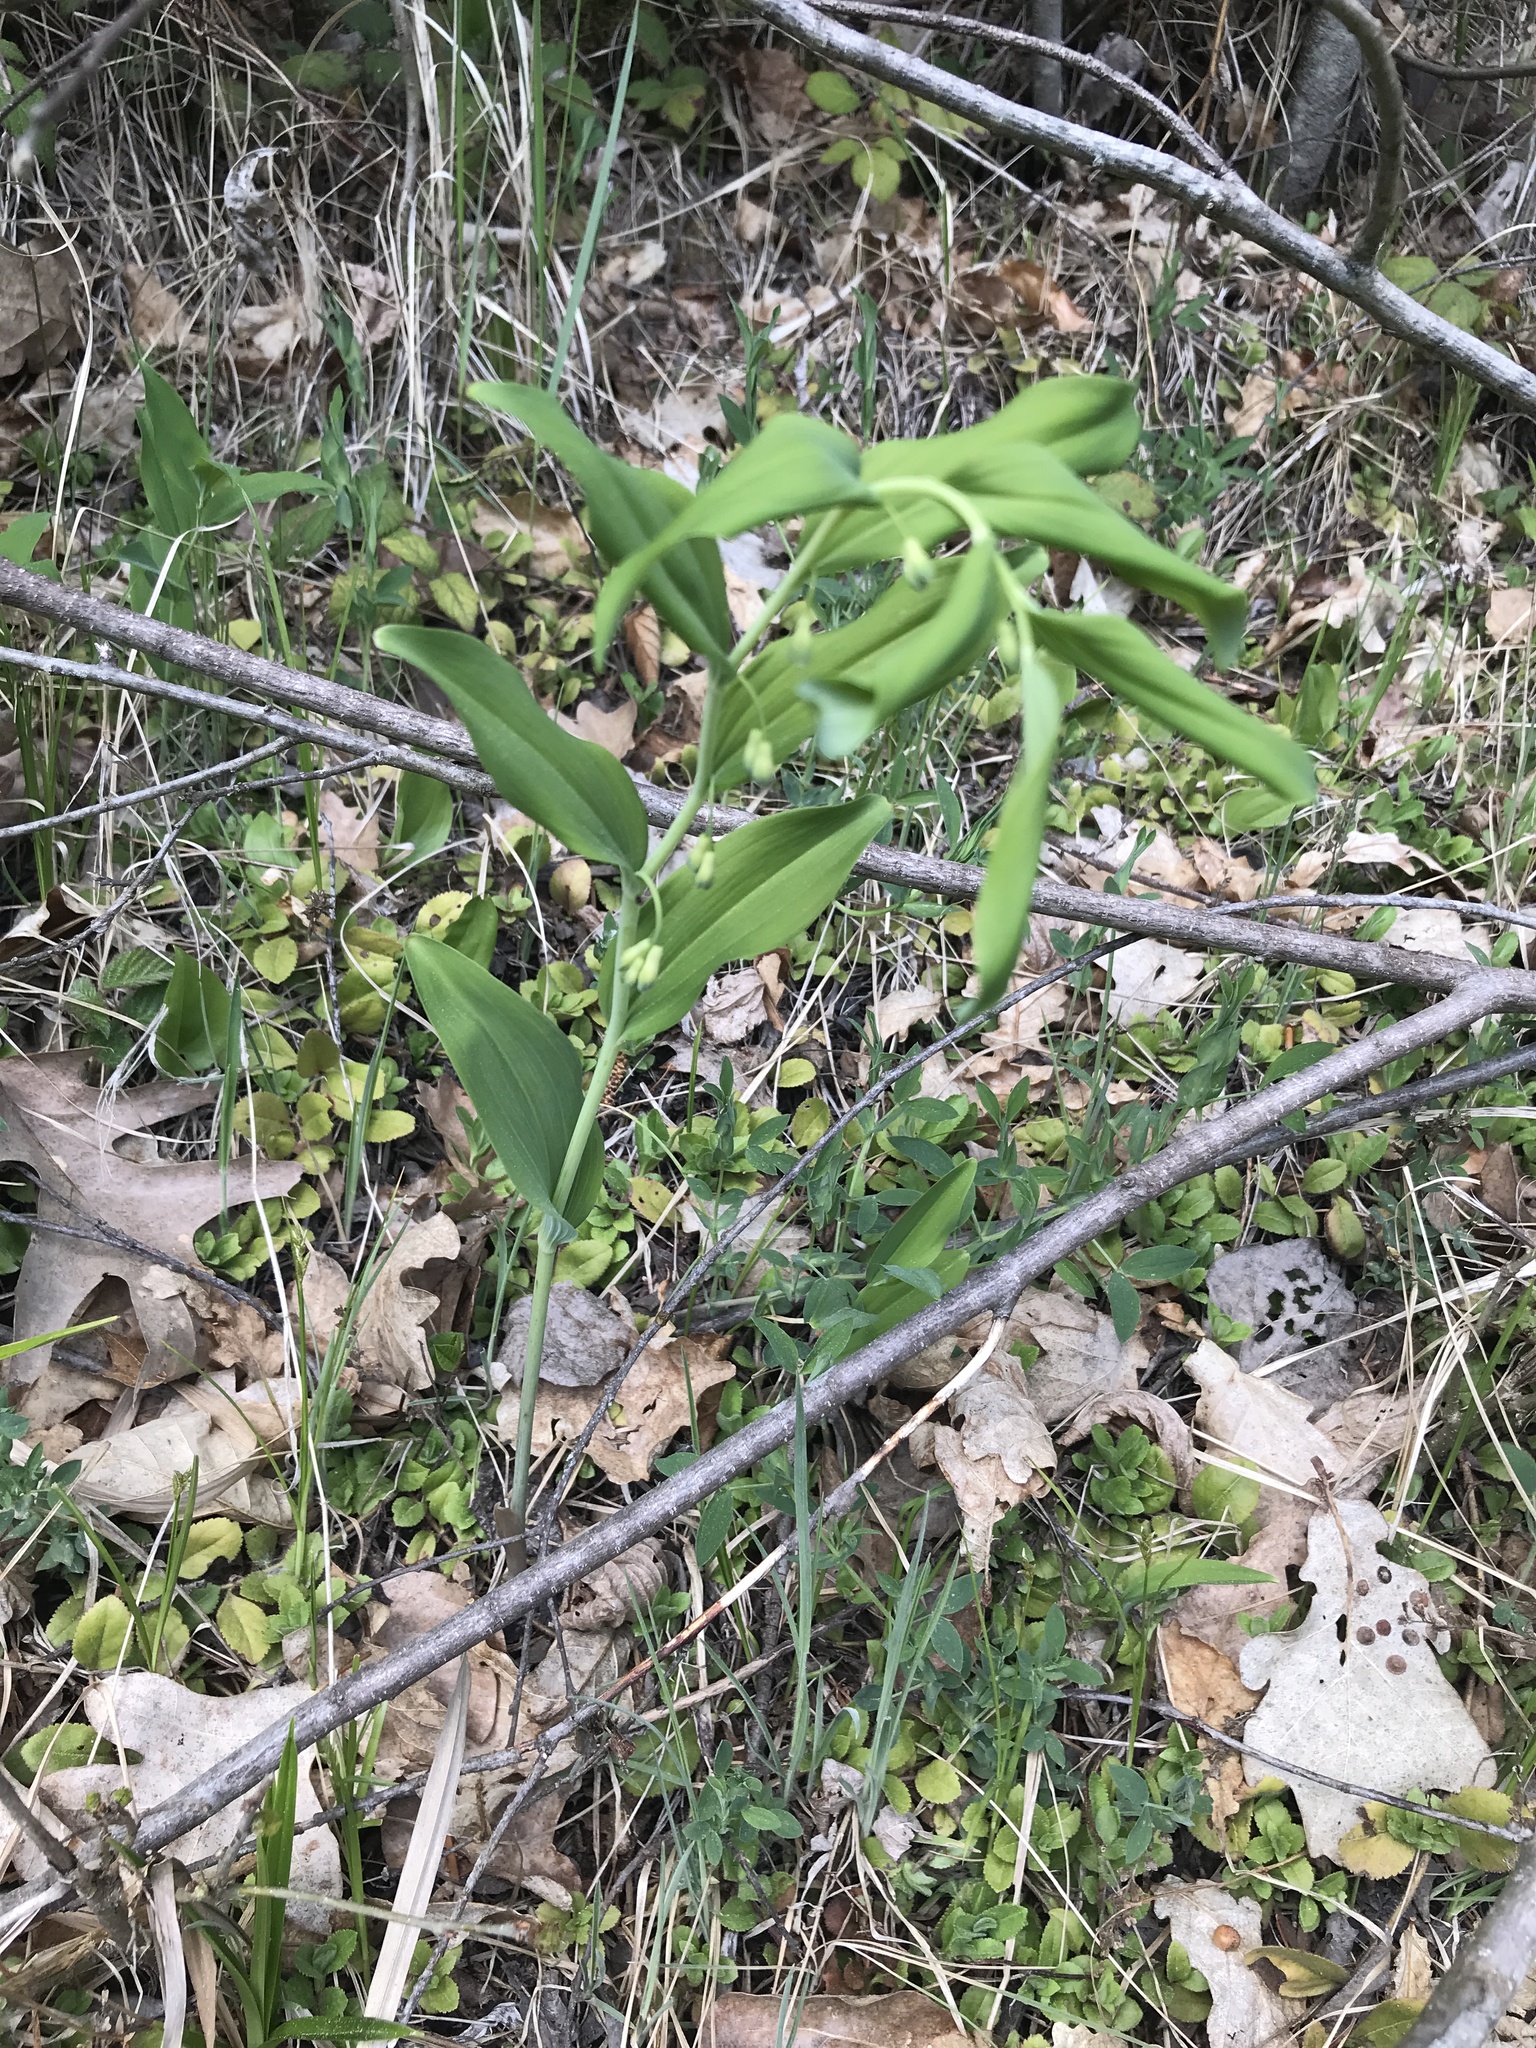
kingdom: Plantae
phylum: Tracheophyta
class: Liliopsida
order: Asparagales
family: Asparagaceae
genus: Polygonatum
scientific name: Polygonatum multiflorum
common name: Solomon's-seal
